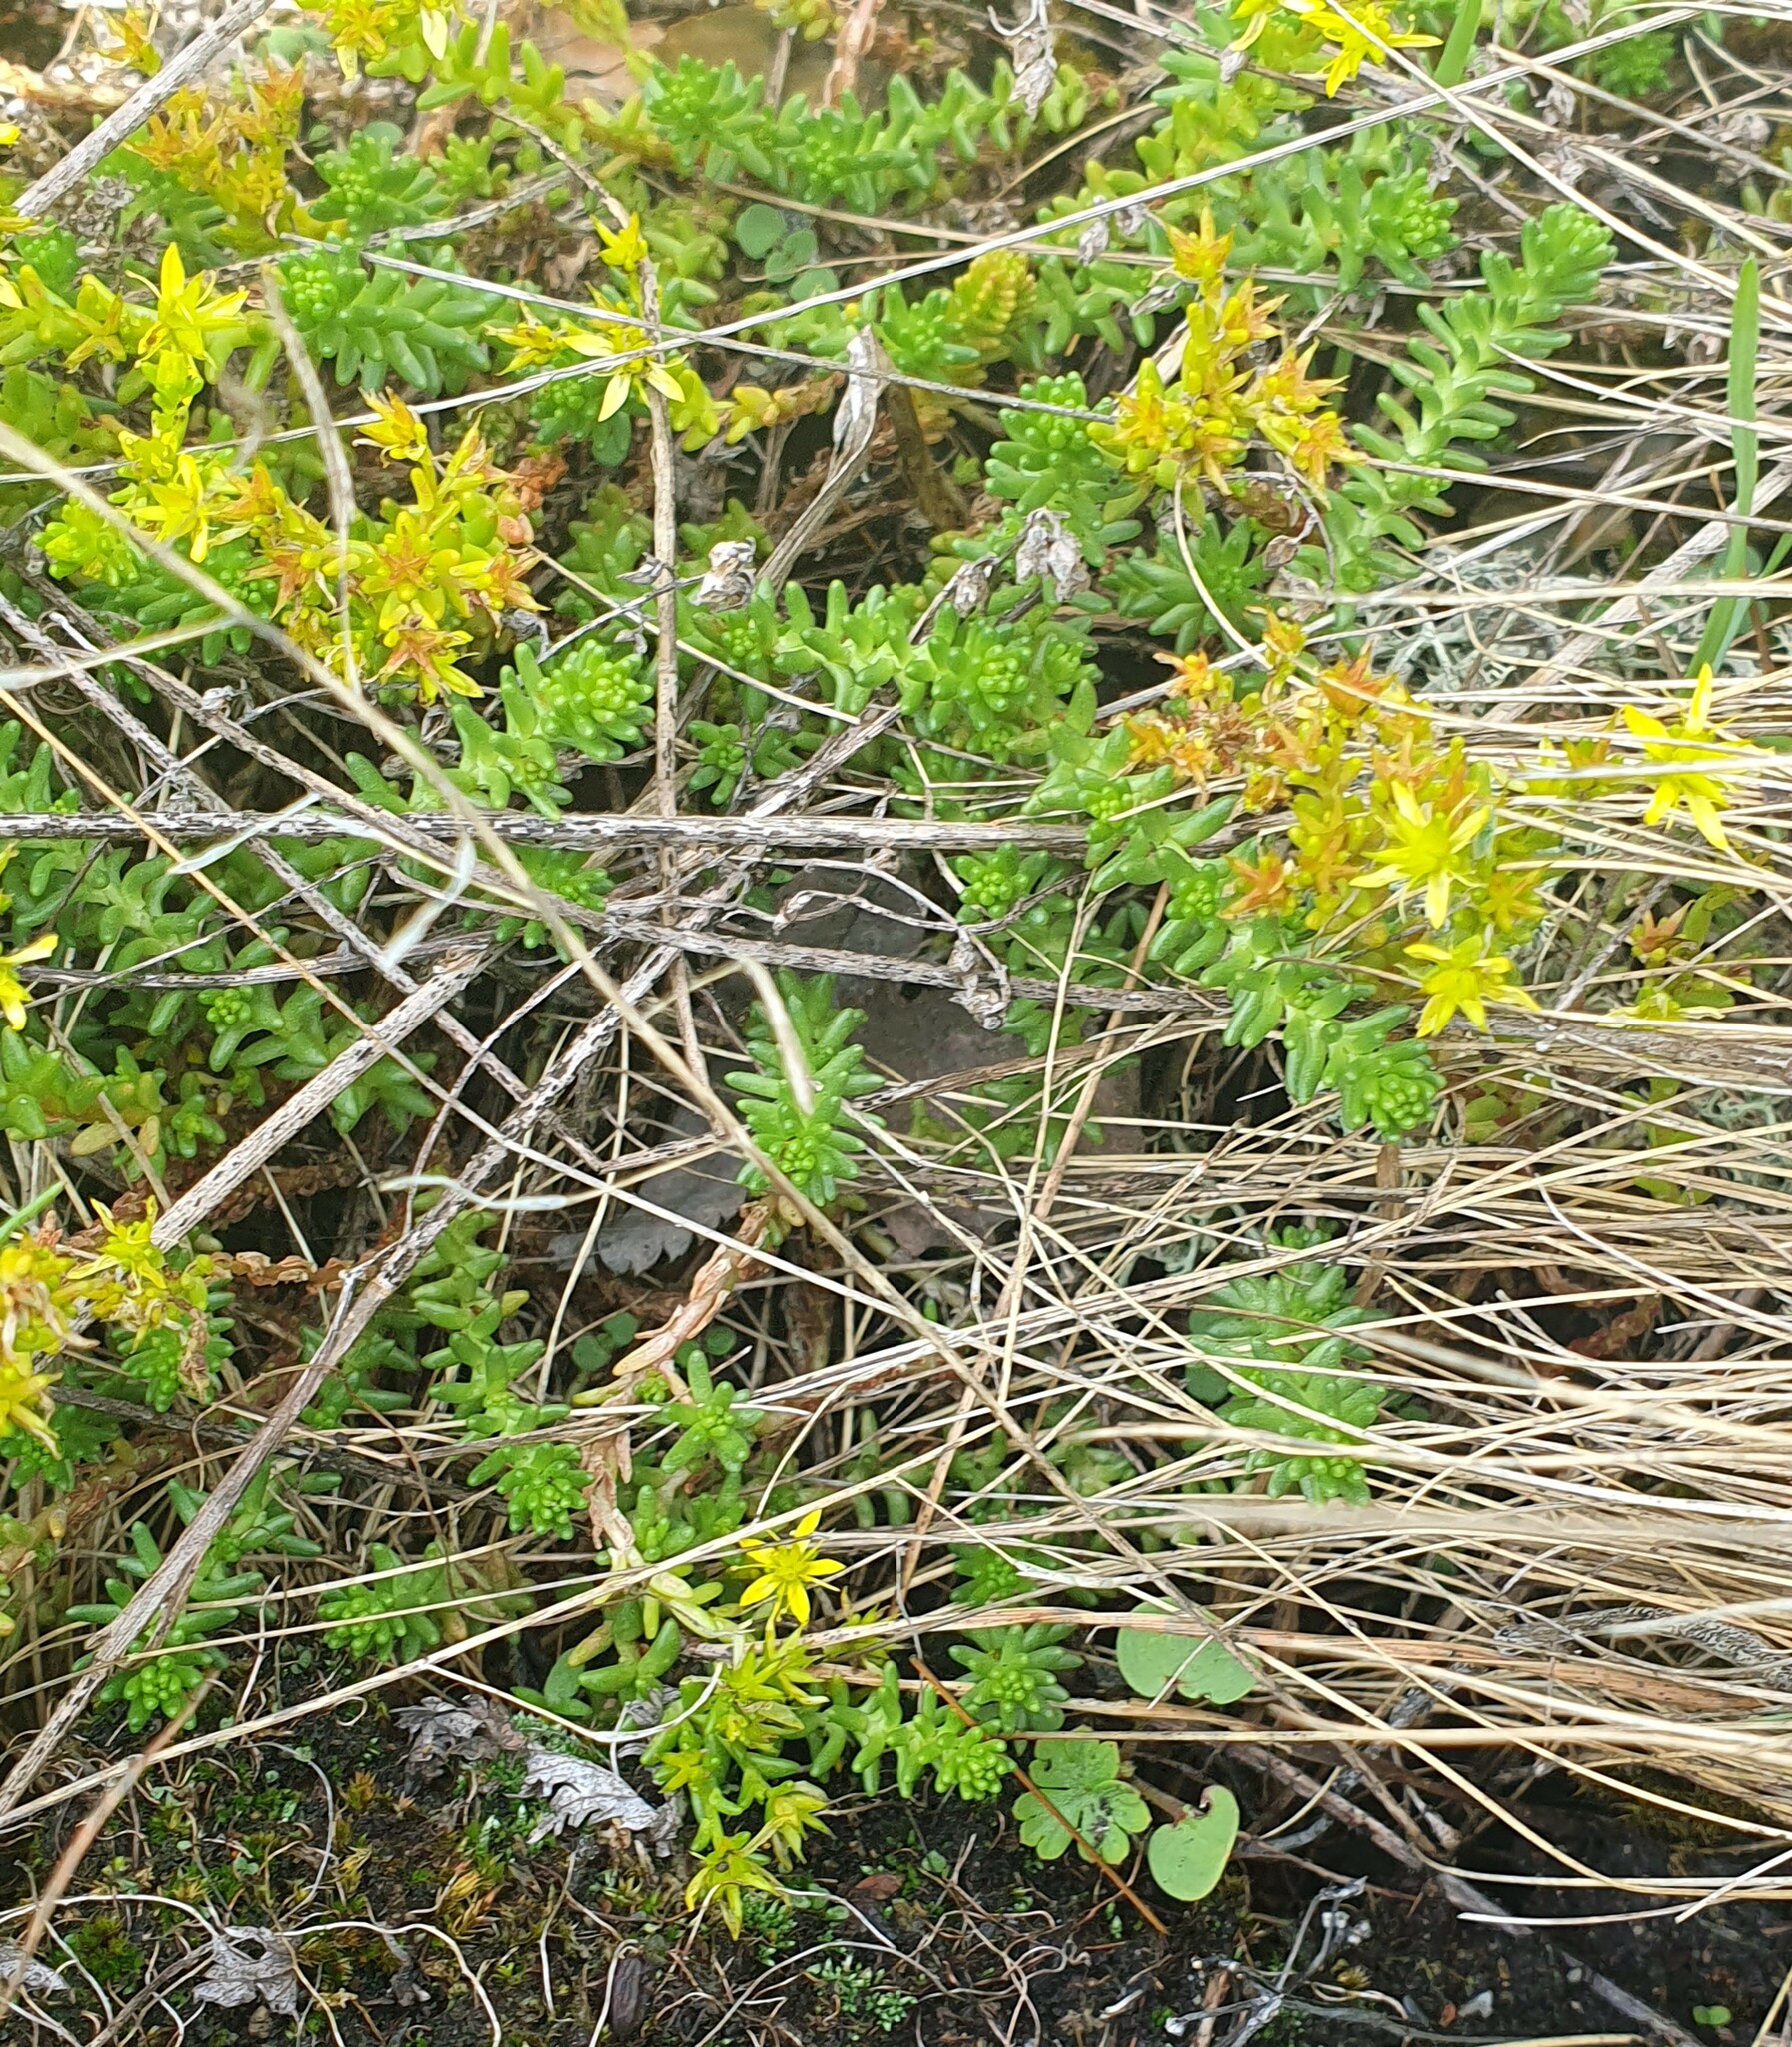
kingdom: Plantae
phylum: Tracheophyta
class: Magnoliopsida
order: Saxifragales
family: Crassulaceae
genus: Sedum
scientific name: Sedum sexangulare
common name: Tasteless stonecrop
